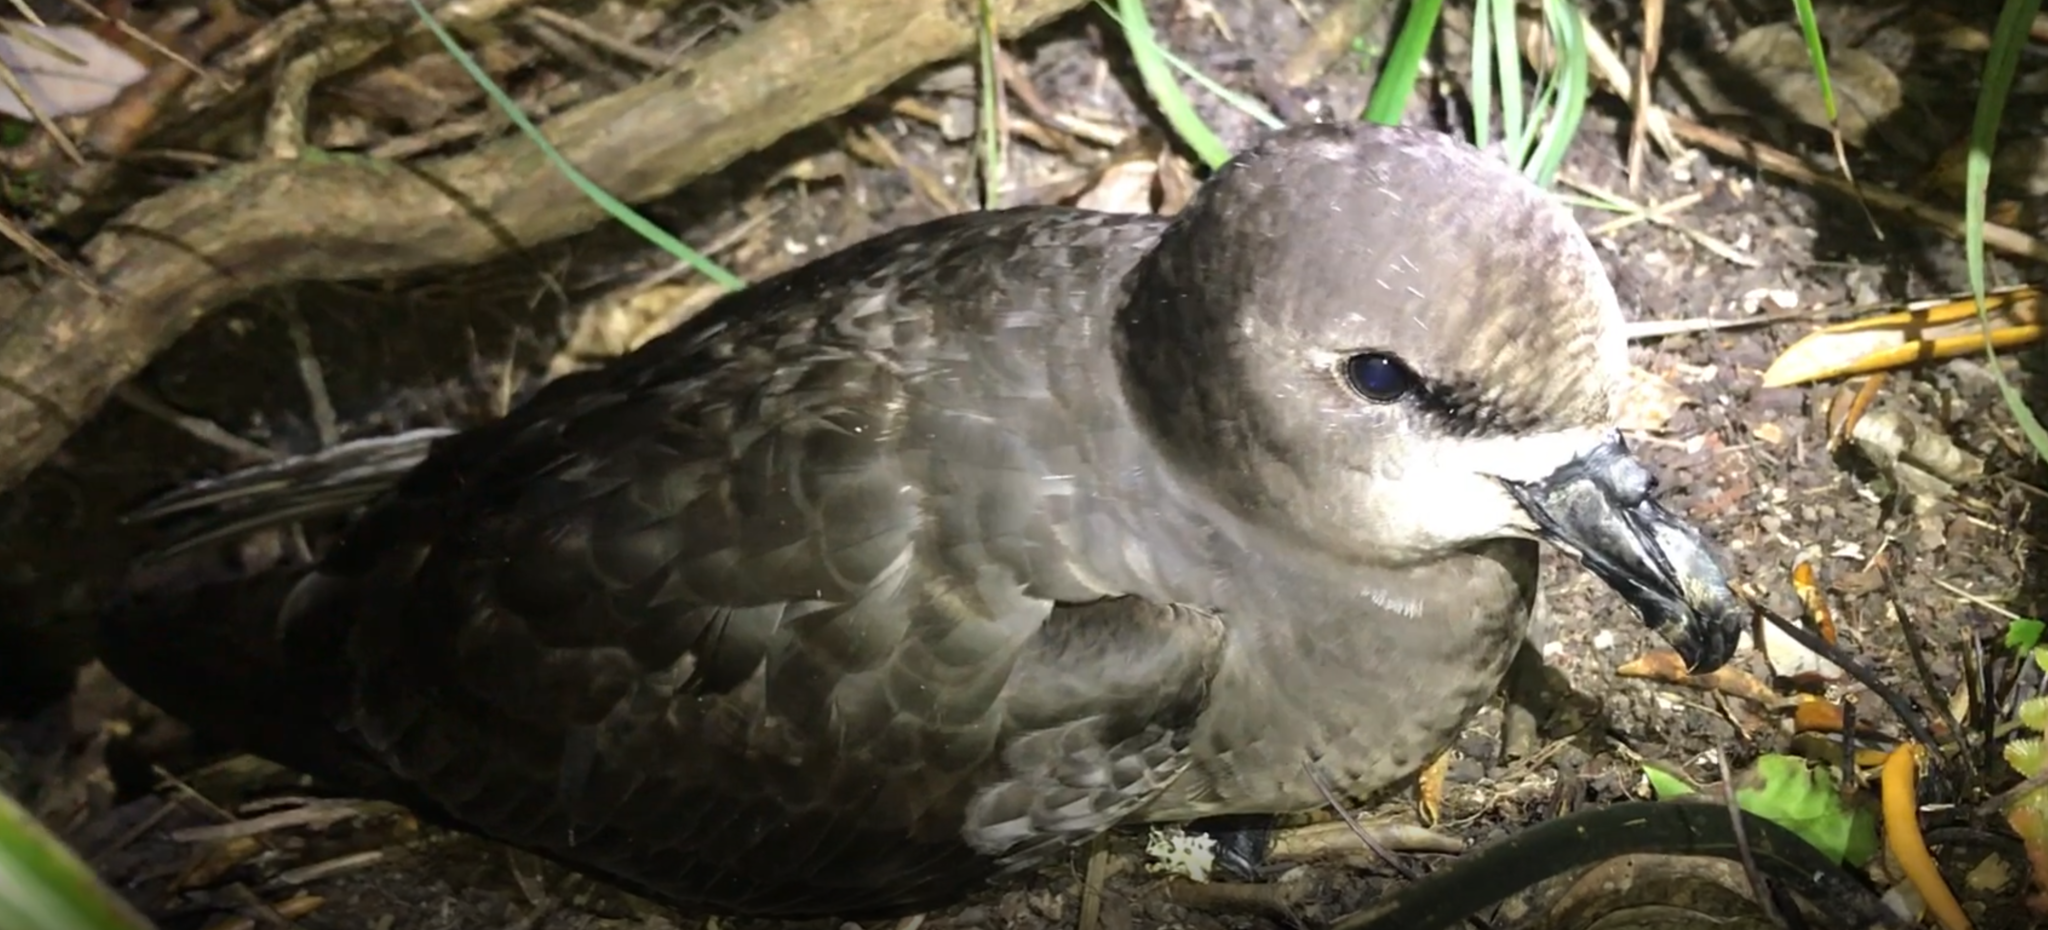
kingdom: Animalia
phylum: Chordata
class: Aves
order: Procellariiformes
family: Procellariidae
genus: Pterodroma
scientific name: Pterodroma macroptera
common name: Great-winged petrel
